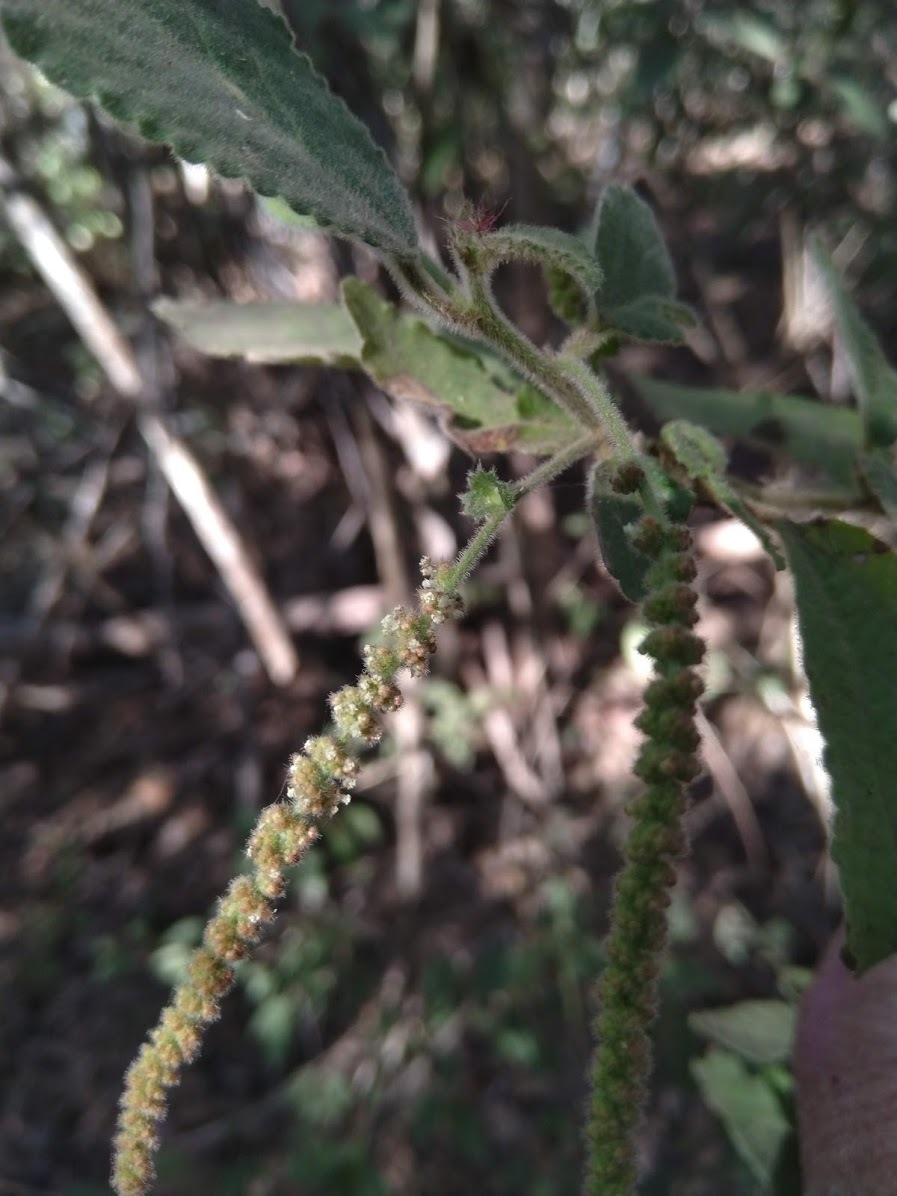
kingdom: Plantae
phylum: Tracheophyta
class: Magnoliopsida
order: Malpighiales
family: Euphorbiaceae
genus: Acalypha
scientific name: Acalypha nemorum
